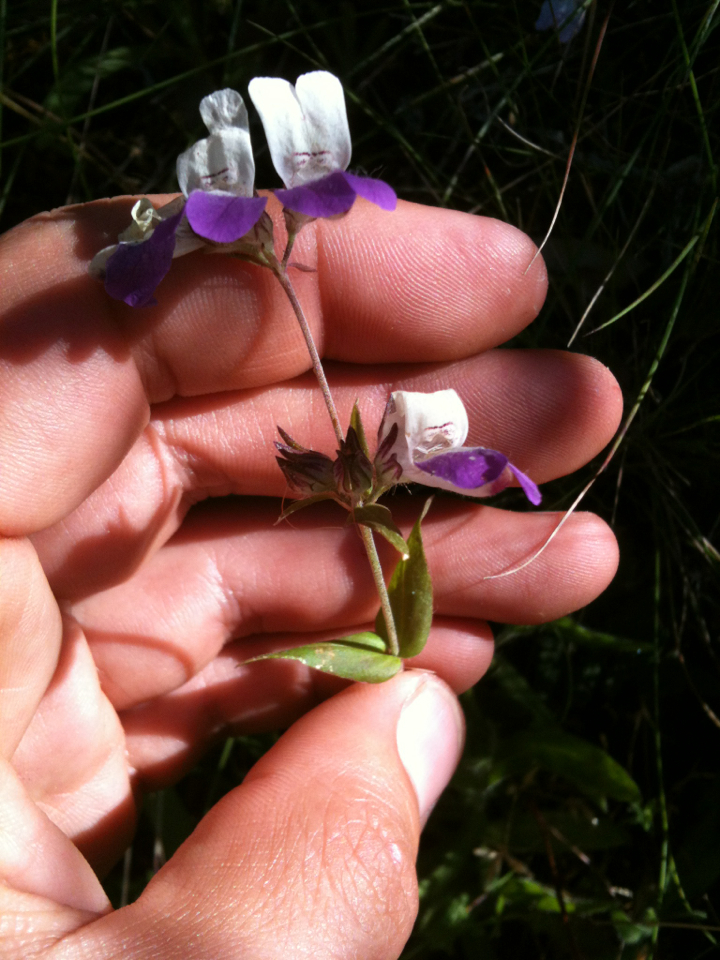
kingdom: Plantae
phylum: Tracheophyta
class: Magnoliopsida
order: Lamiales
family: Plantaginaceae
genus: Collinsia
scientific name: Collinsia heterophylla
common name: Chinese-houses
